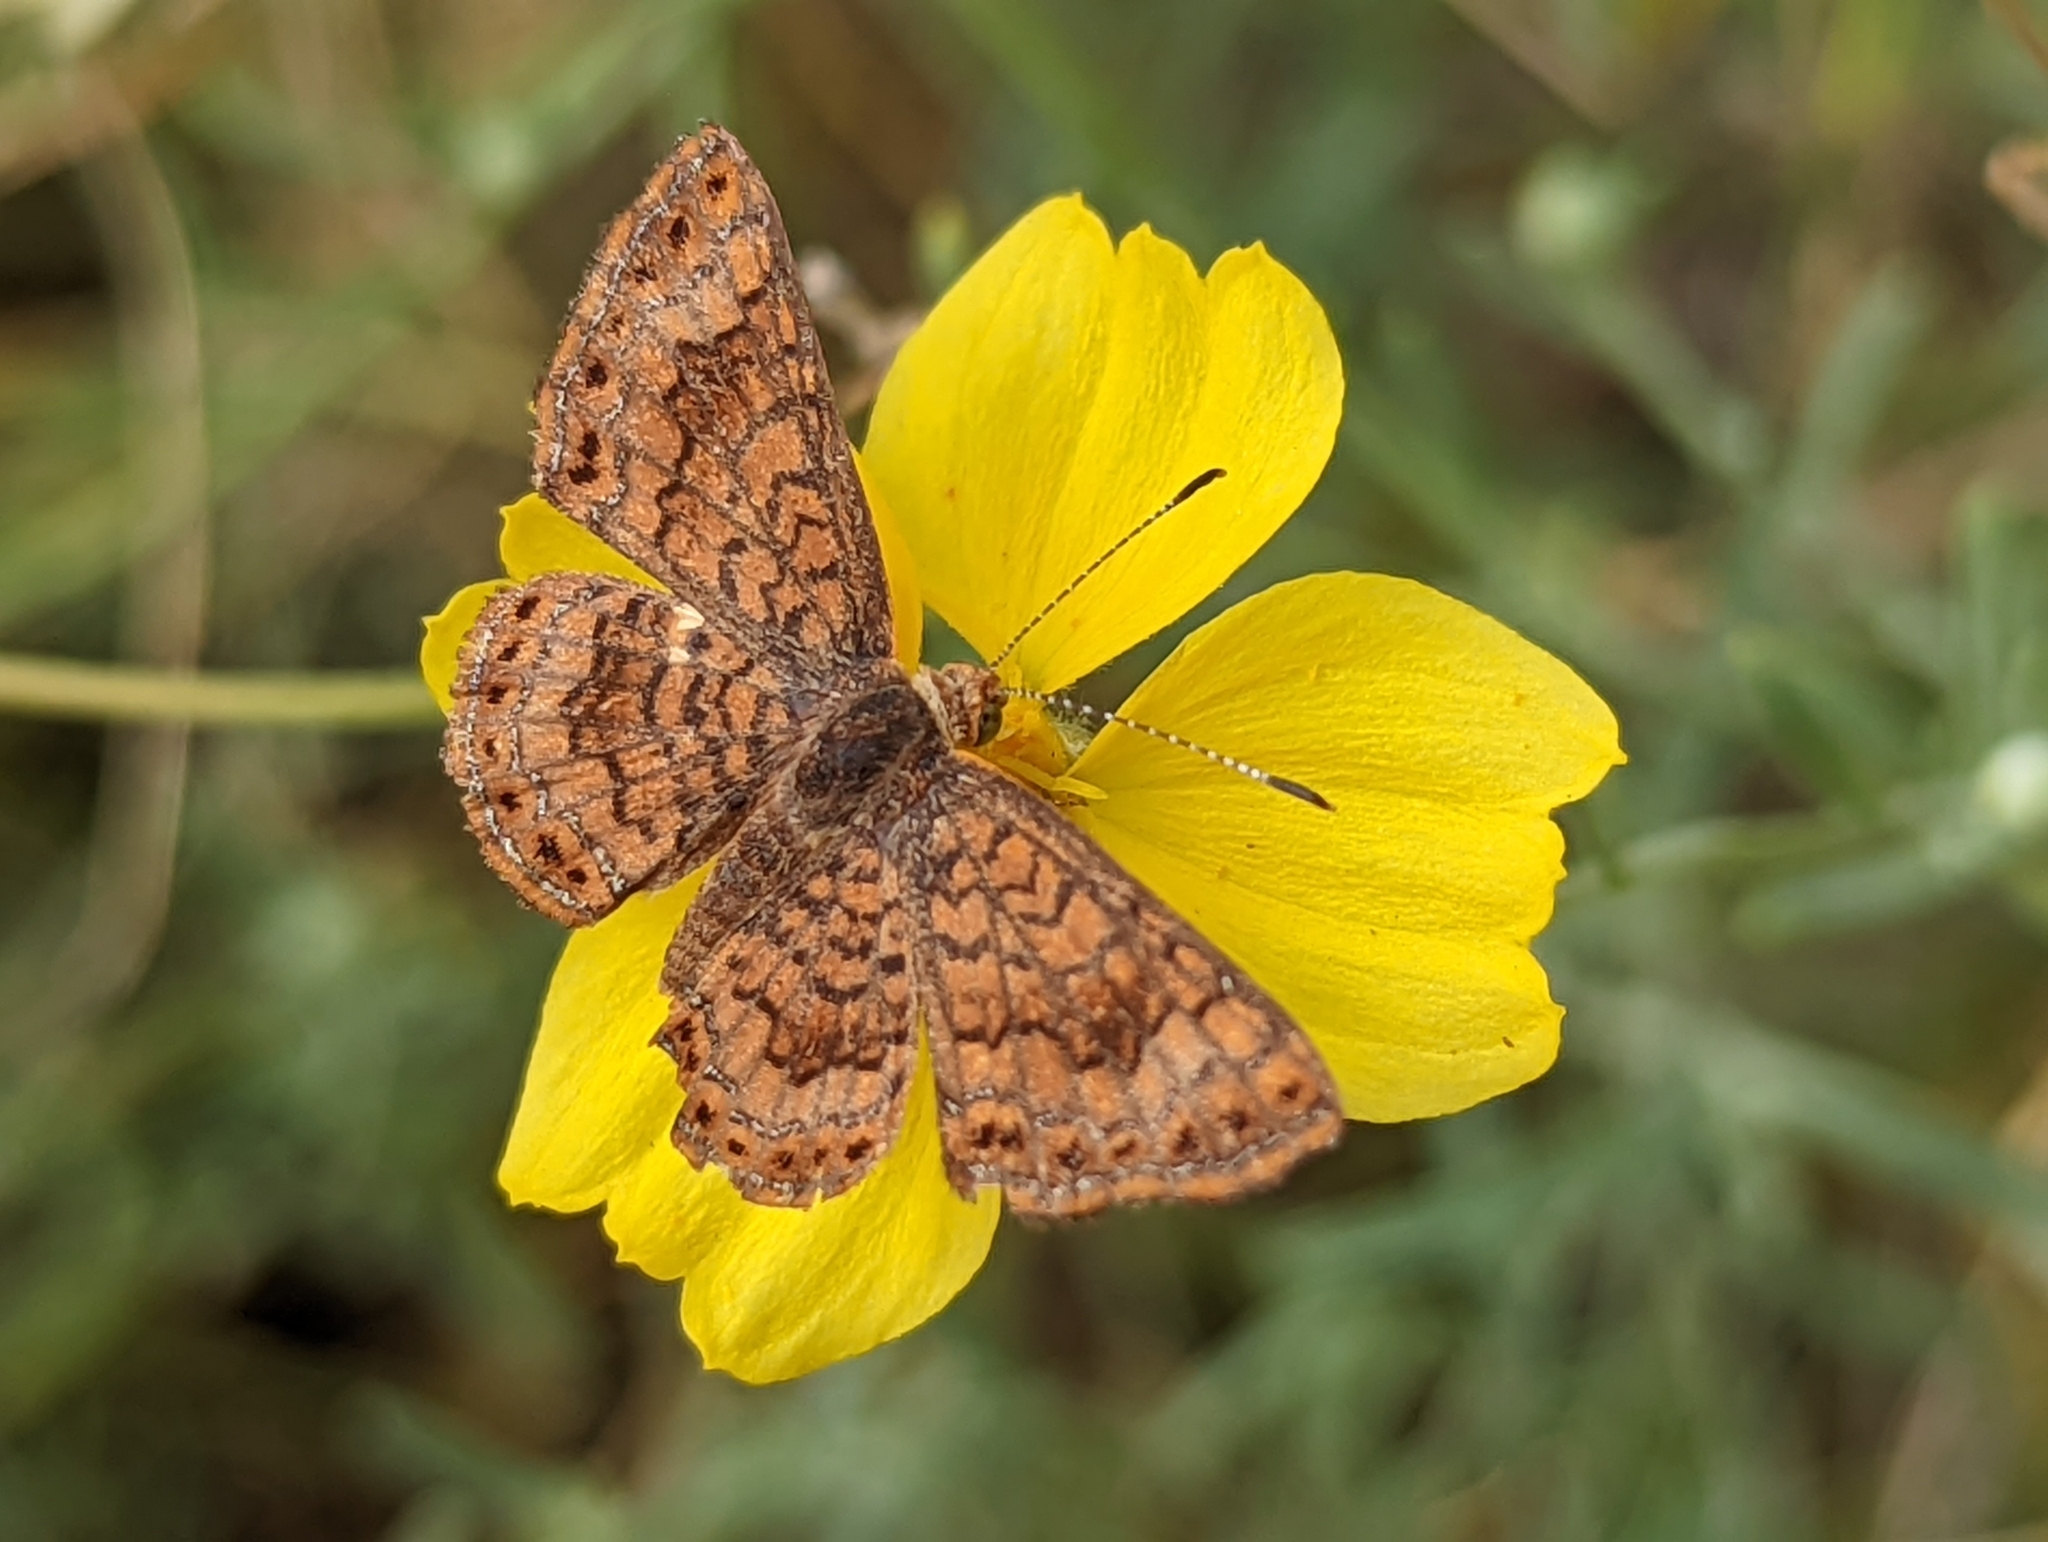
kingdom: Animalia
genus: Calephelis
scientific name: Calephelis nemesis
